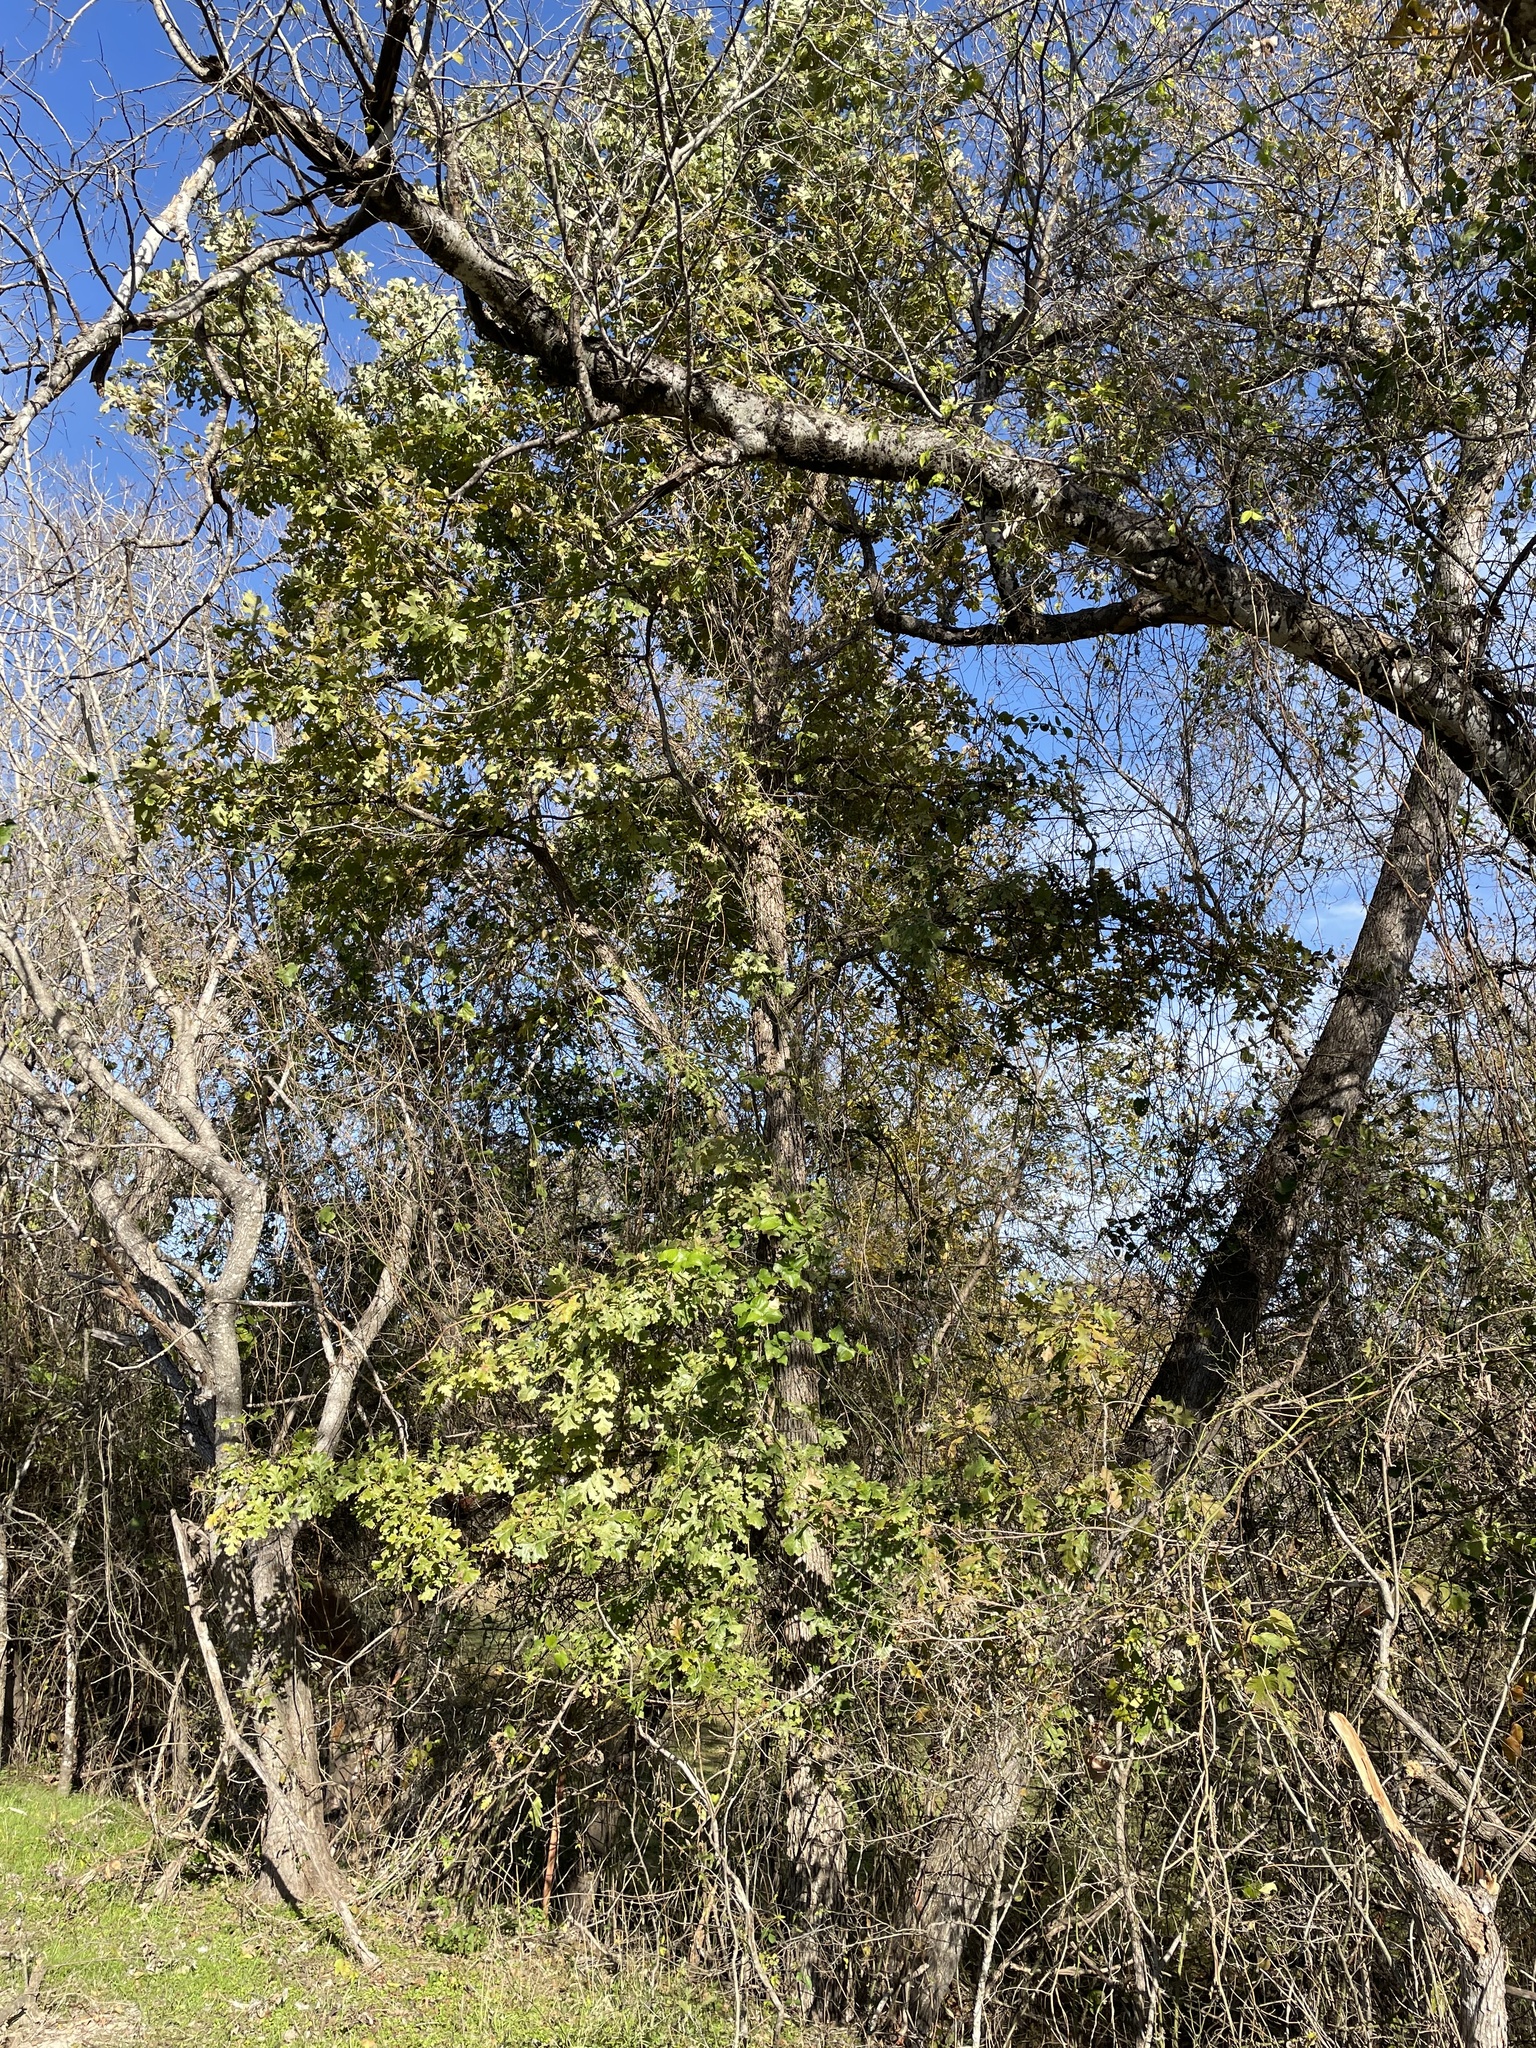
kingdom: Plantae
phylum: Tracheophyta
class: Magnoliopsida
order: Fagales
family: Fagaceae
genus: Quercus
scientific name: Quercus macrocarpa
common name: Bur oak
